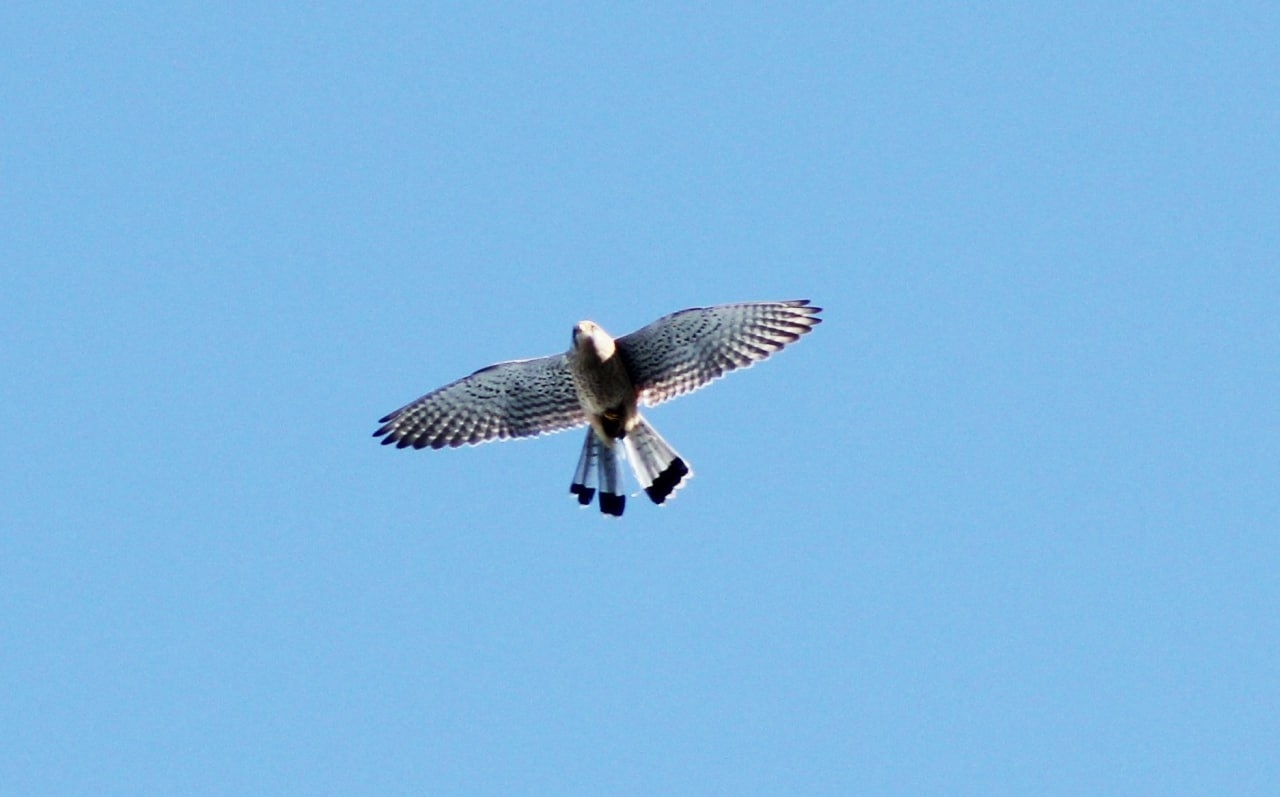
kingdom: Animalia
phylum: Chordata
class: Aves
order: Falconiformes
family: Falconidae
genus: Falco
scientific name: Falco tinnunculus
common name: Common kestrel
